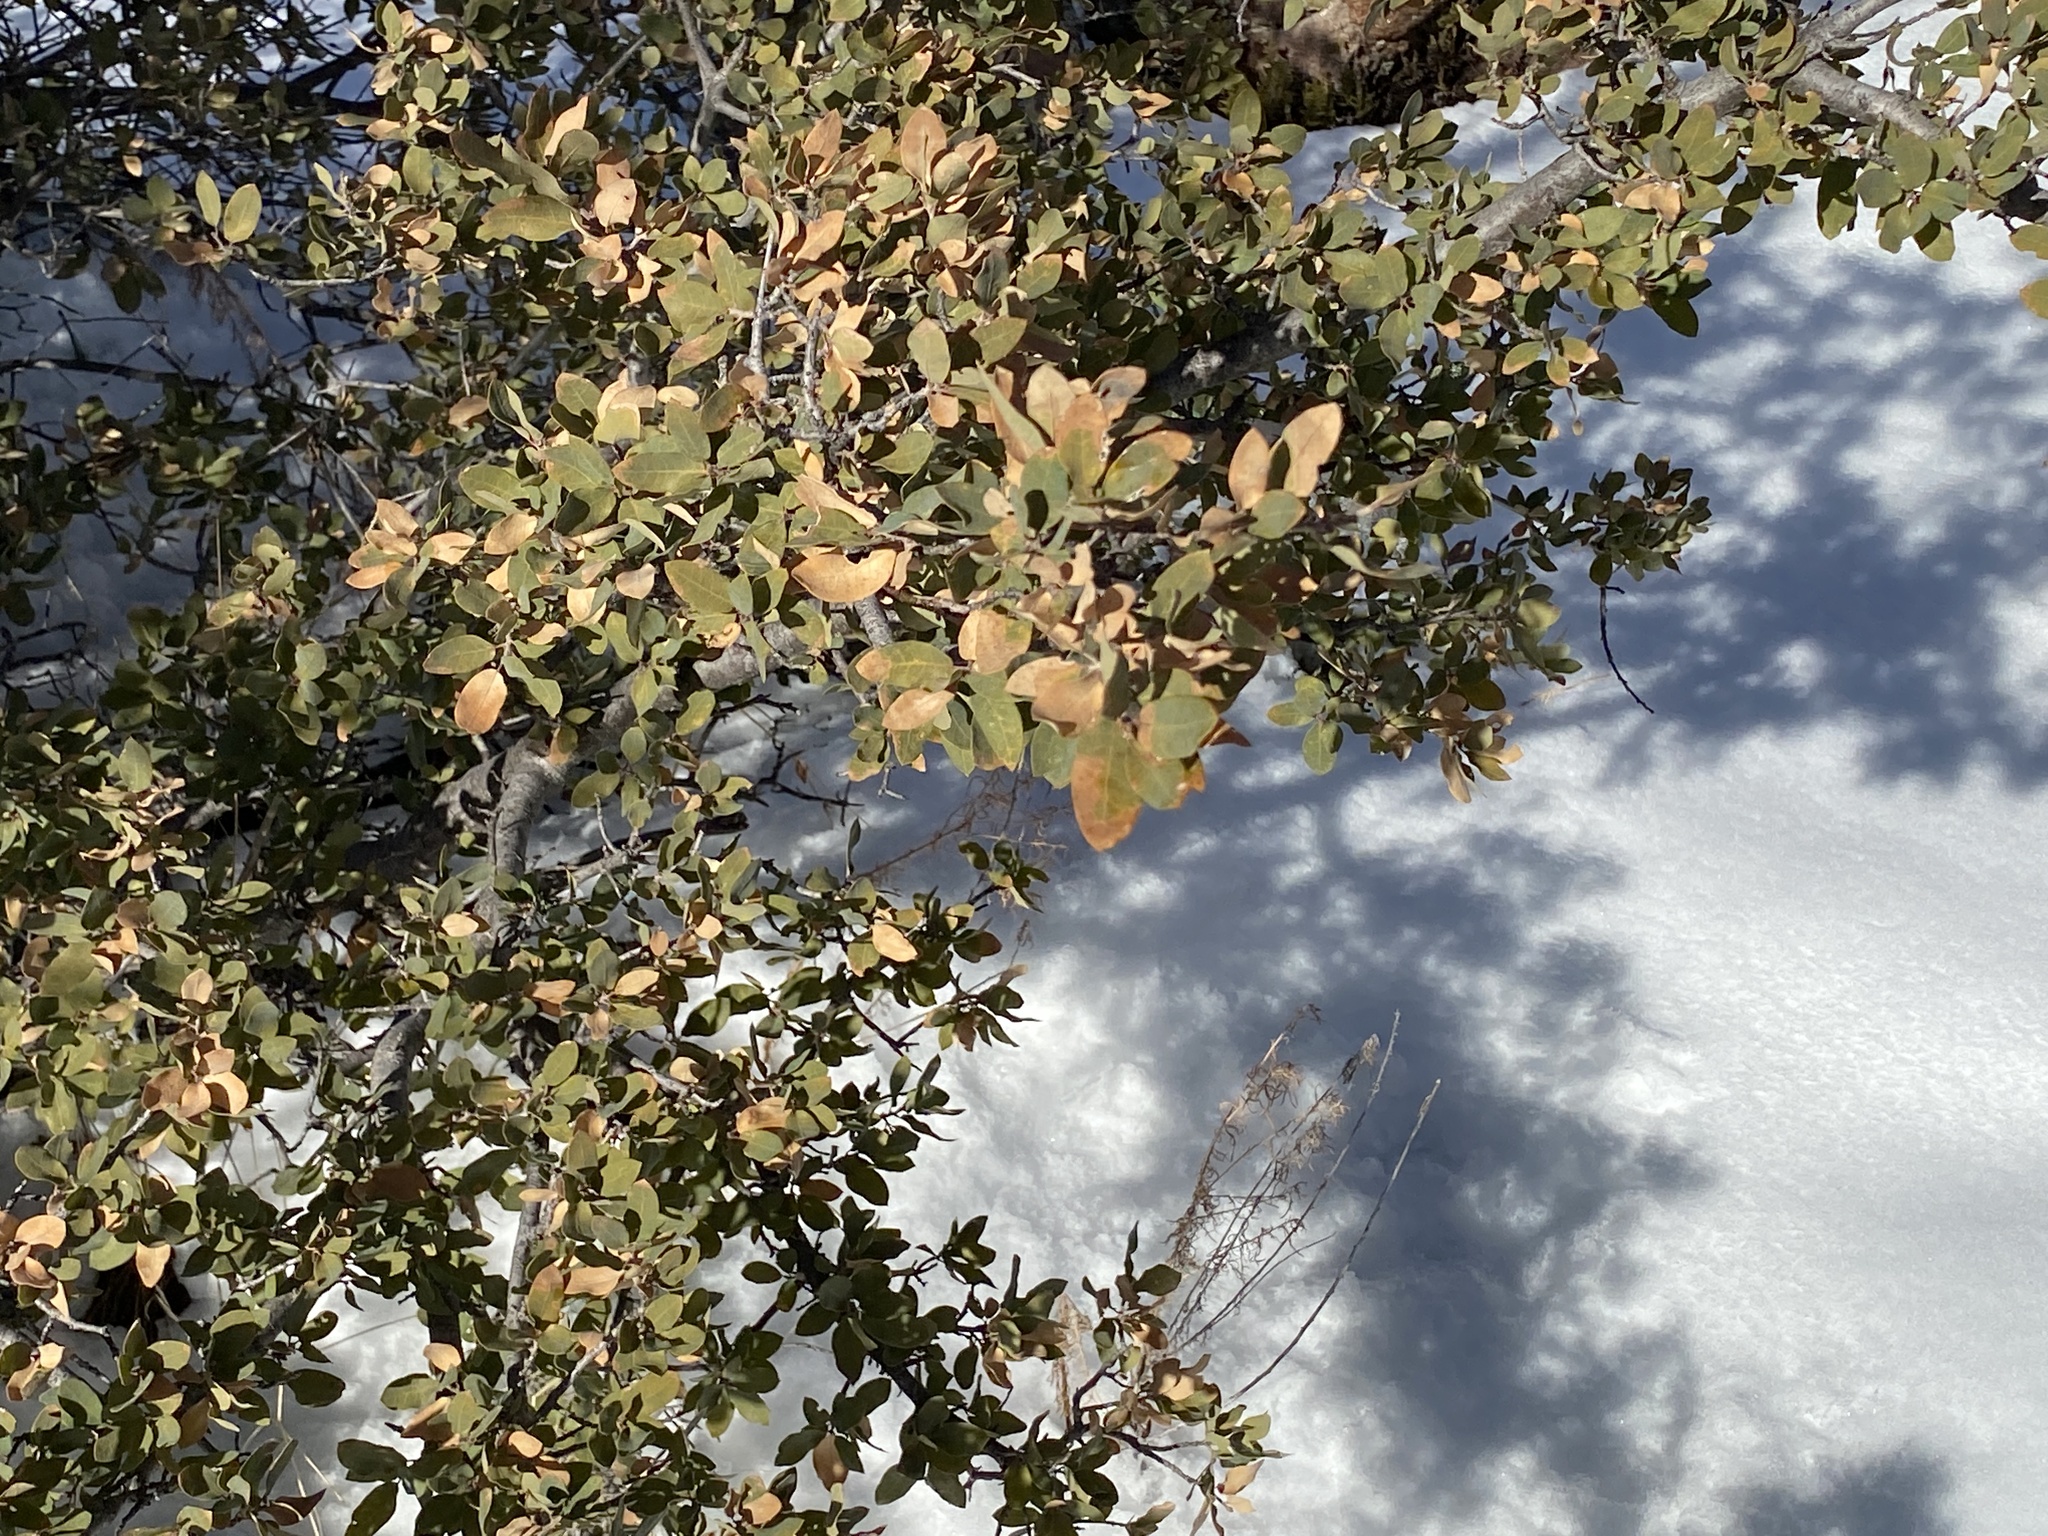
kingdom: Plantae
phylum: Tracheophyta
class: Magnoliopsida
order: Fagales
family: Fagaceae
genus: Quercus
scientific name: Quercus emoryi
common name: Emory oak
